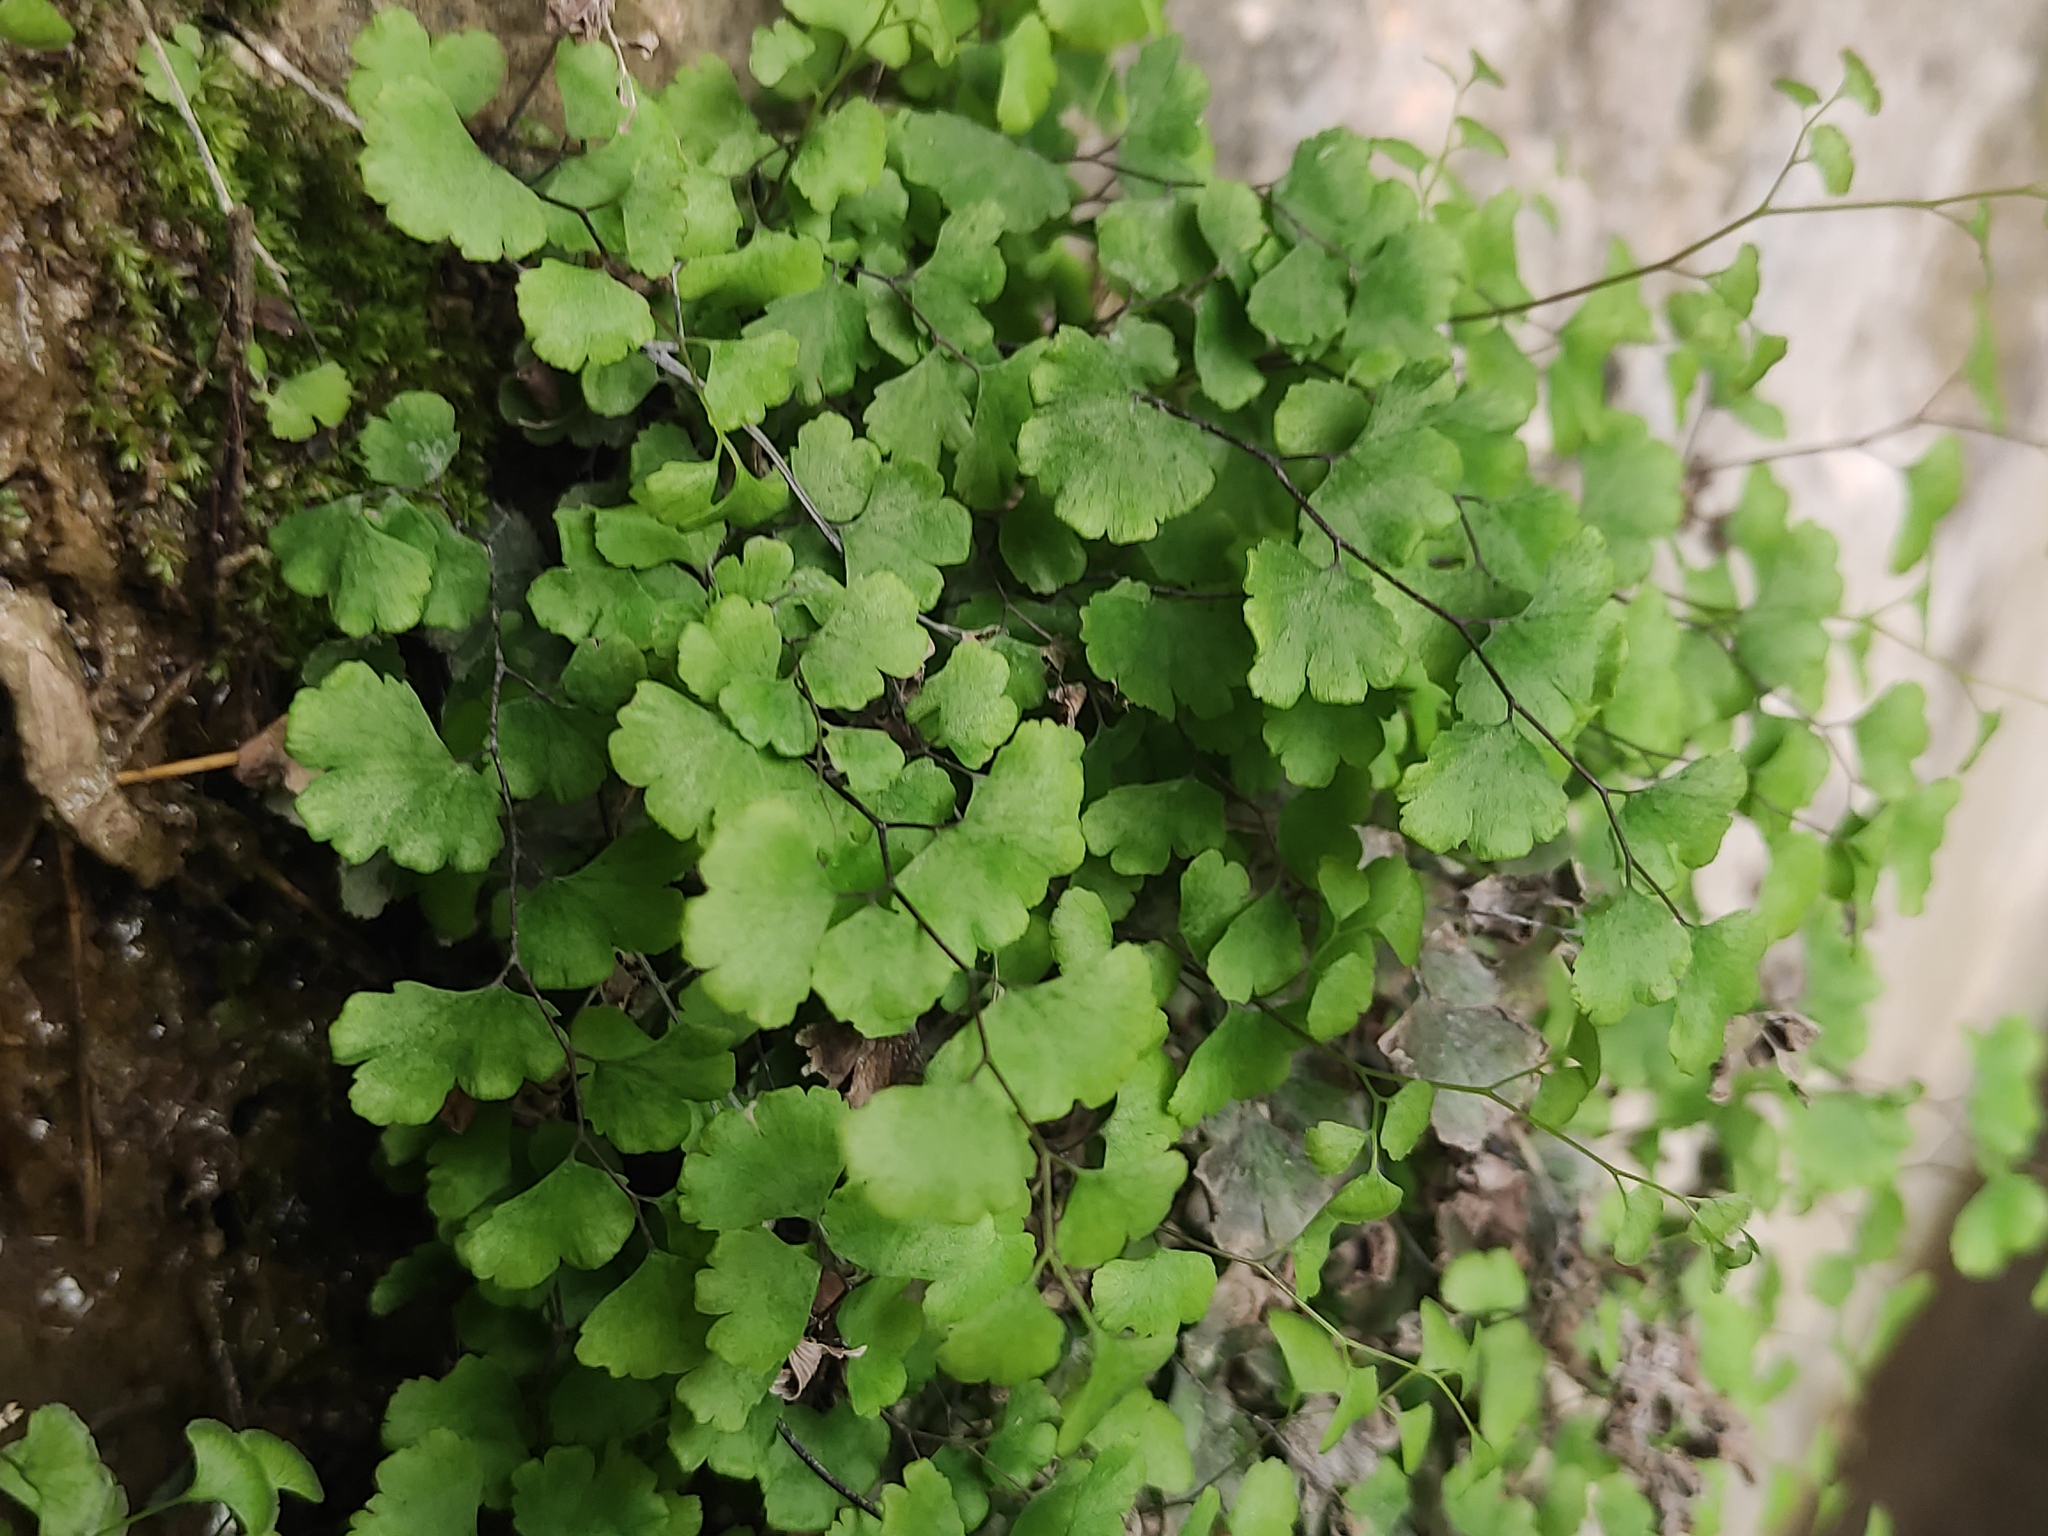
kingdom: Plantae
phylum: Tracheophyta
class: Polypodiopsida
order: Polypodiales
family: Pteridaceae
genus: Adiantum
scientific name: Adiantum capillus-veneris
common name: Maidenhair fern
